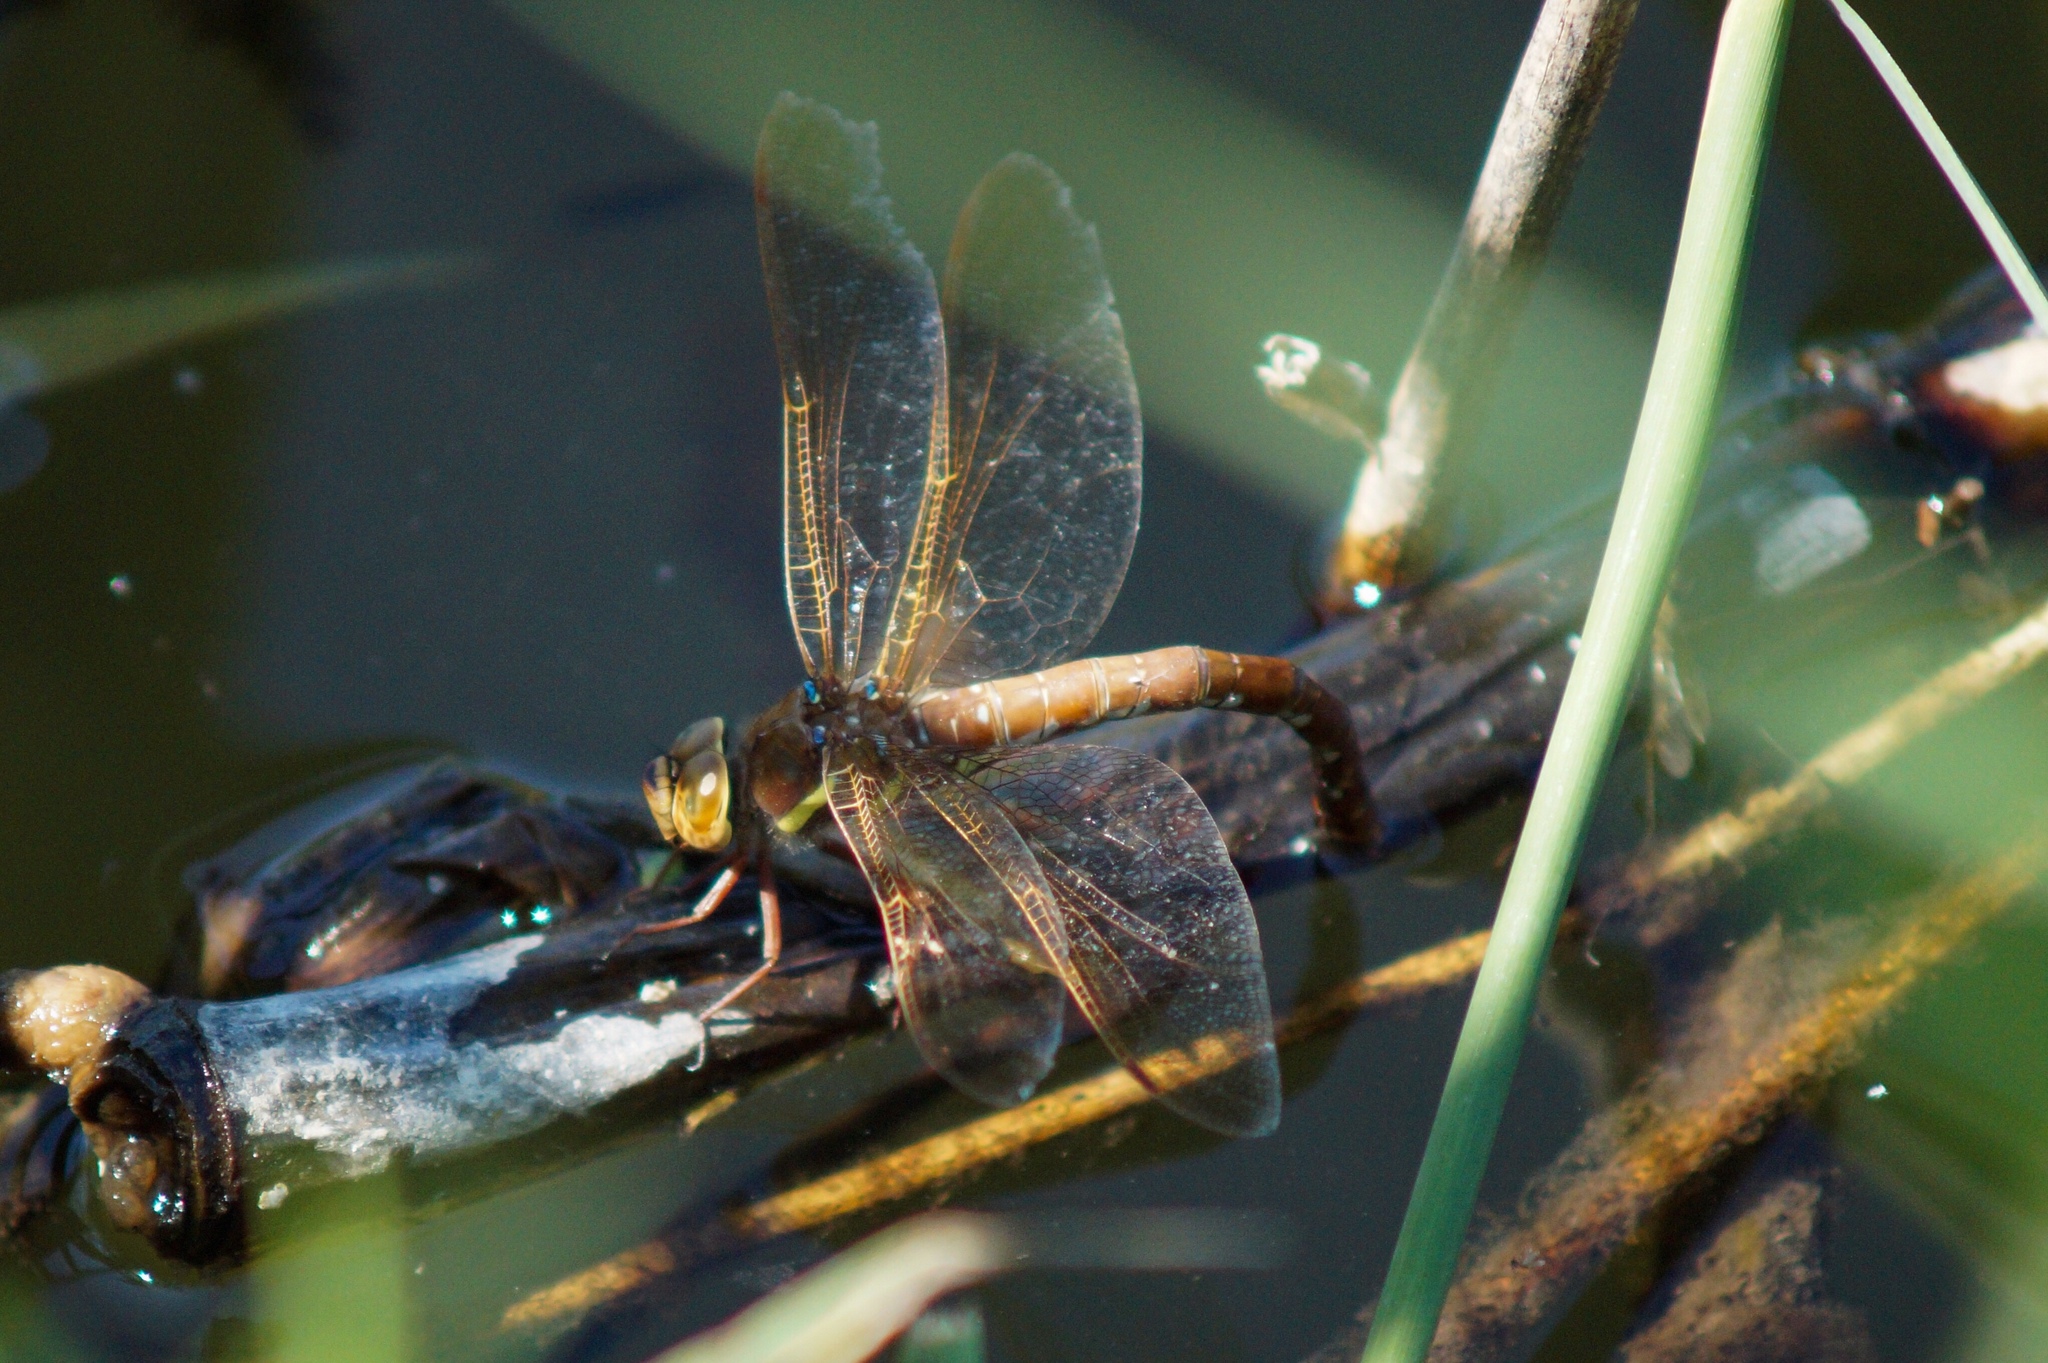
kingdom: Animalia
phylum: Arthropoda
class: Insecta
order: Odonata
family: Aeshnidae
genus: Aeshna
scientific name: Aeshna grandis
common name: Brown hawker
